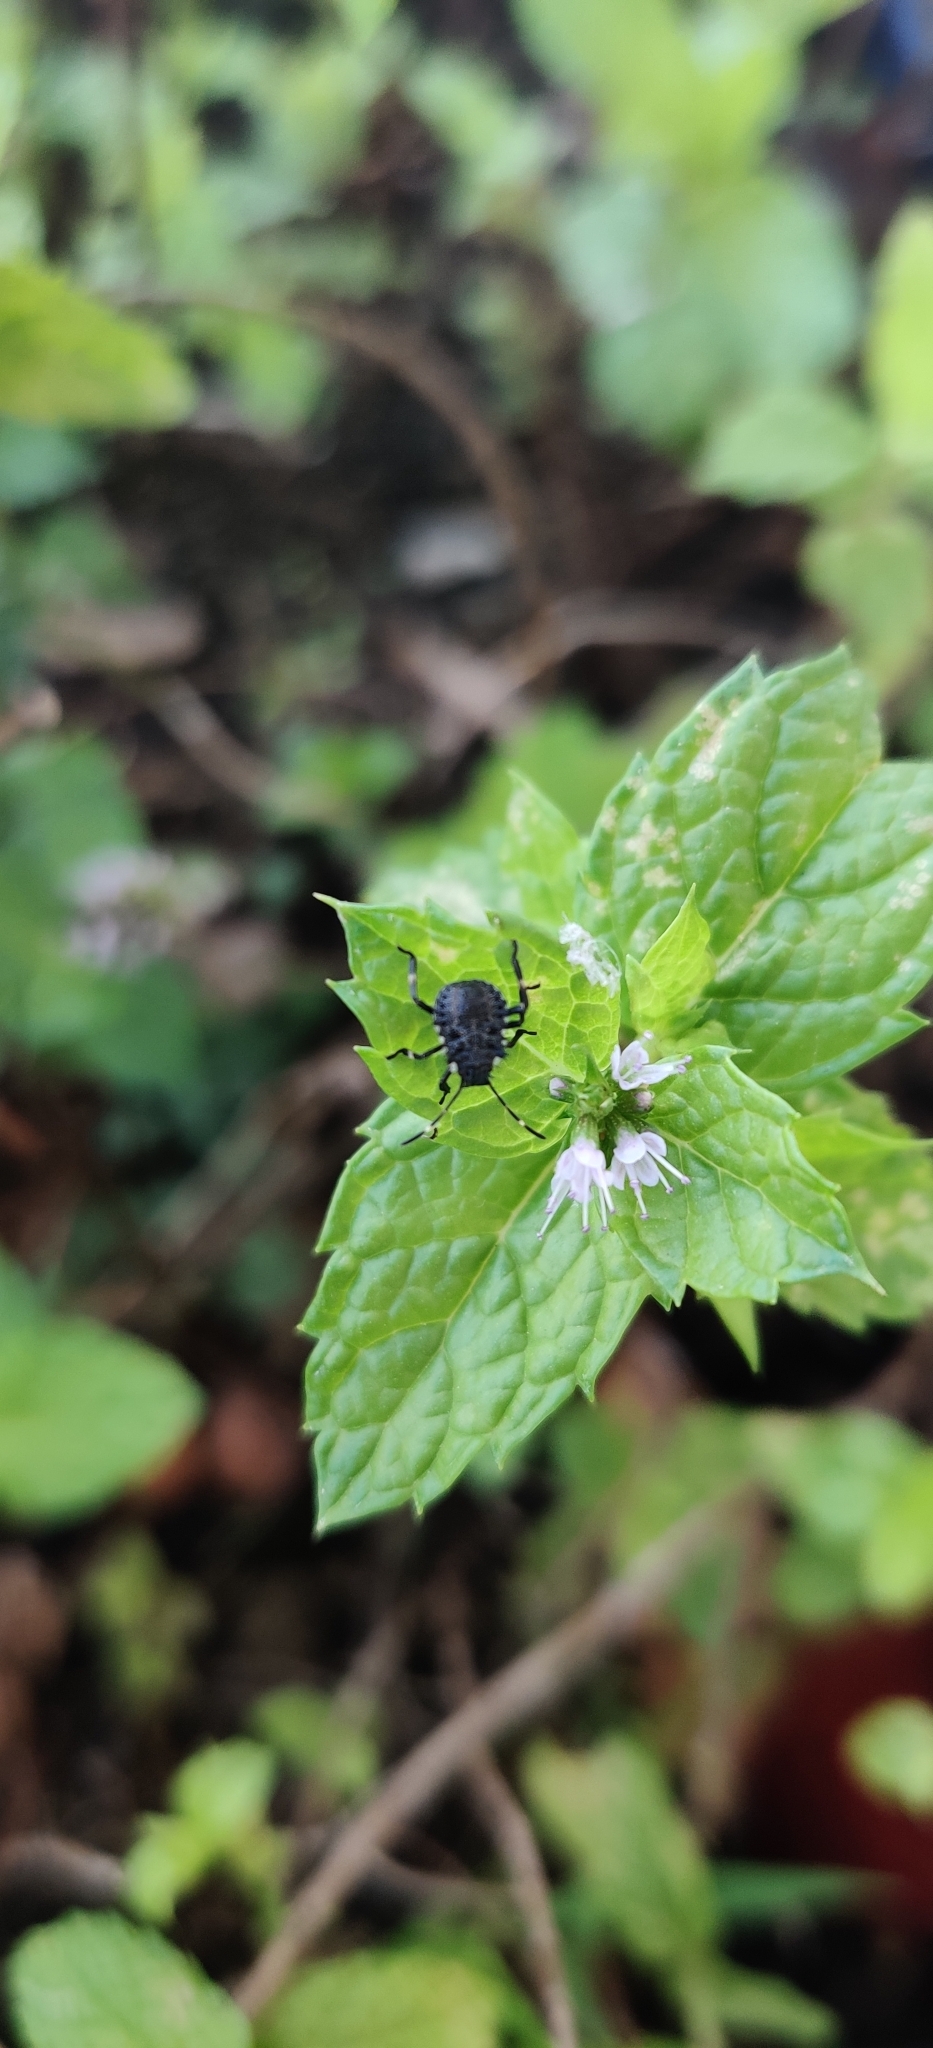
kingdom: Animalia
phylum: Arthropoda
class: Insecta
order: Hemiptera
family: Pentatomidae
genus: Halyomorpha
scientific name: Halyomorpha halys
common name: Brown marmorated stink bug
